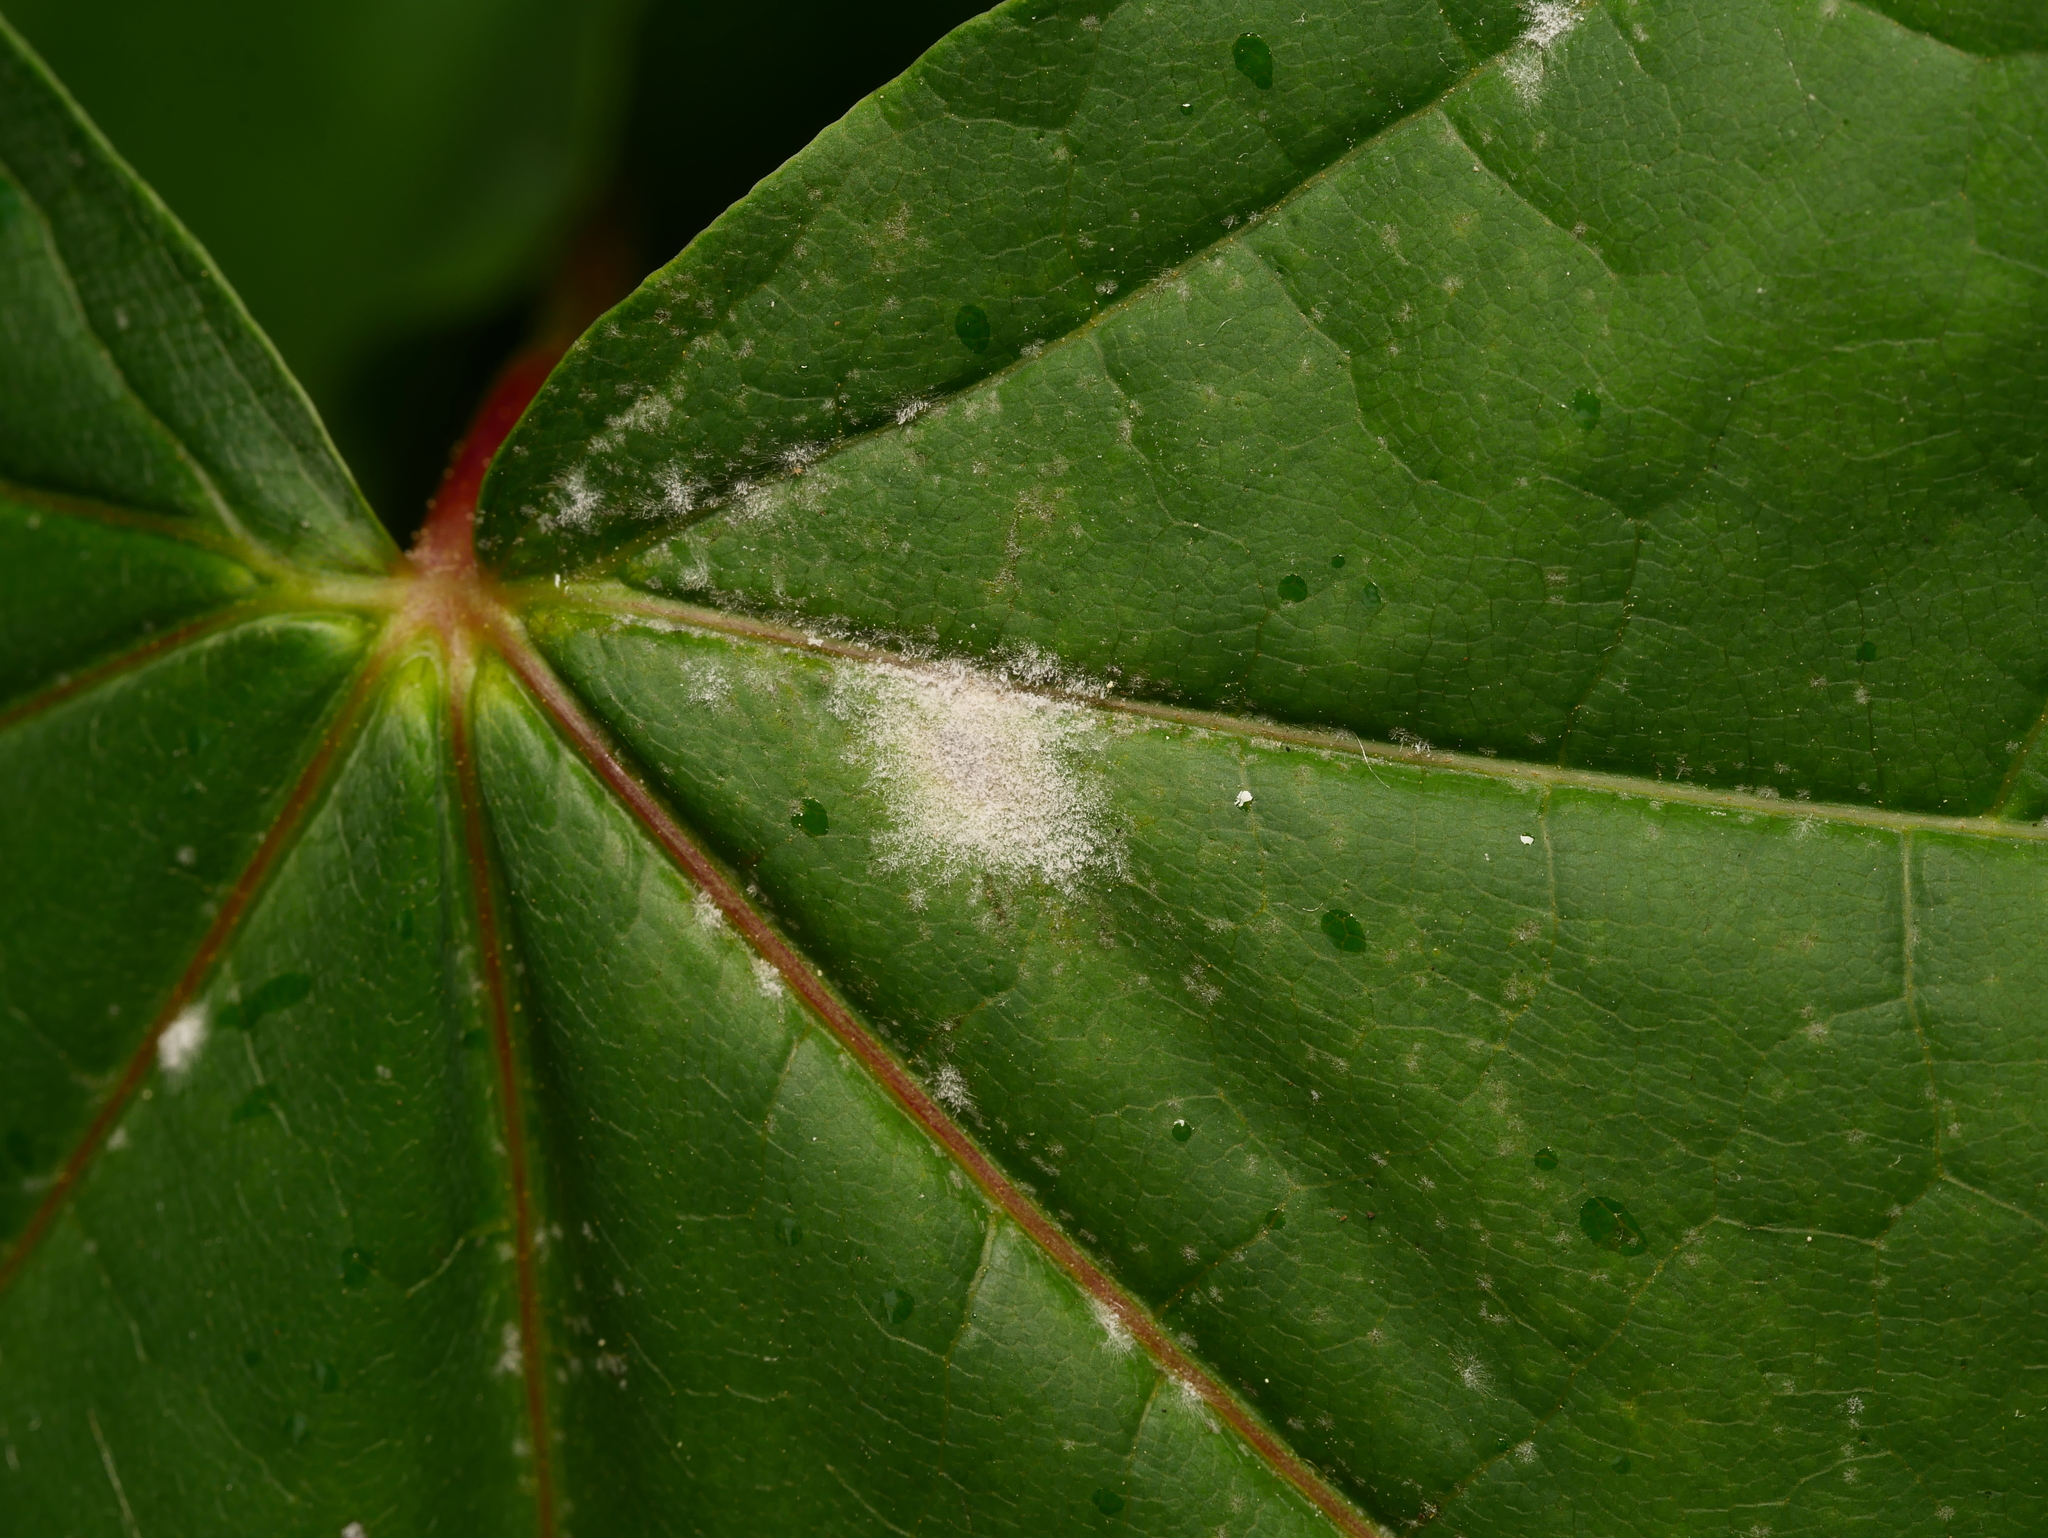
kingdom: Fungi
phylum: Ascomycota
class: Leotiomycetes
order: Helotiales
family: Erysiphaceae
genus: Sawadaea
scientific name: Sawadaea tulasnei
